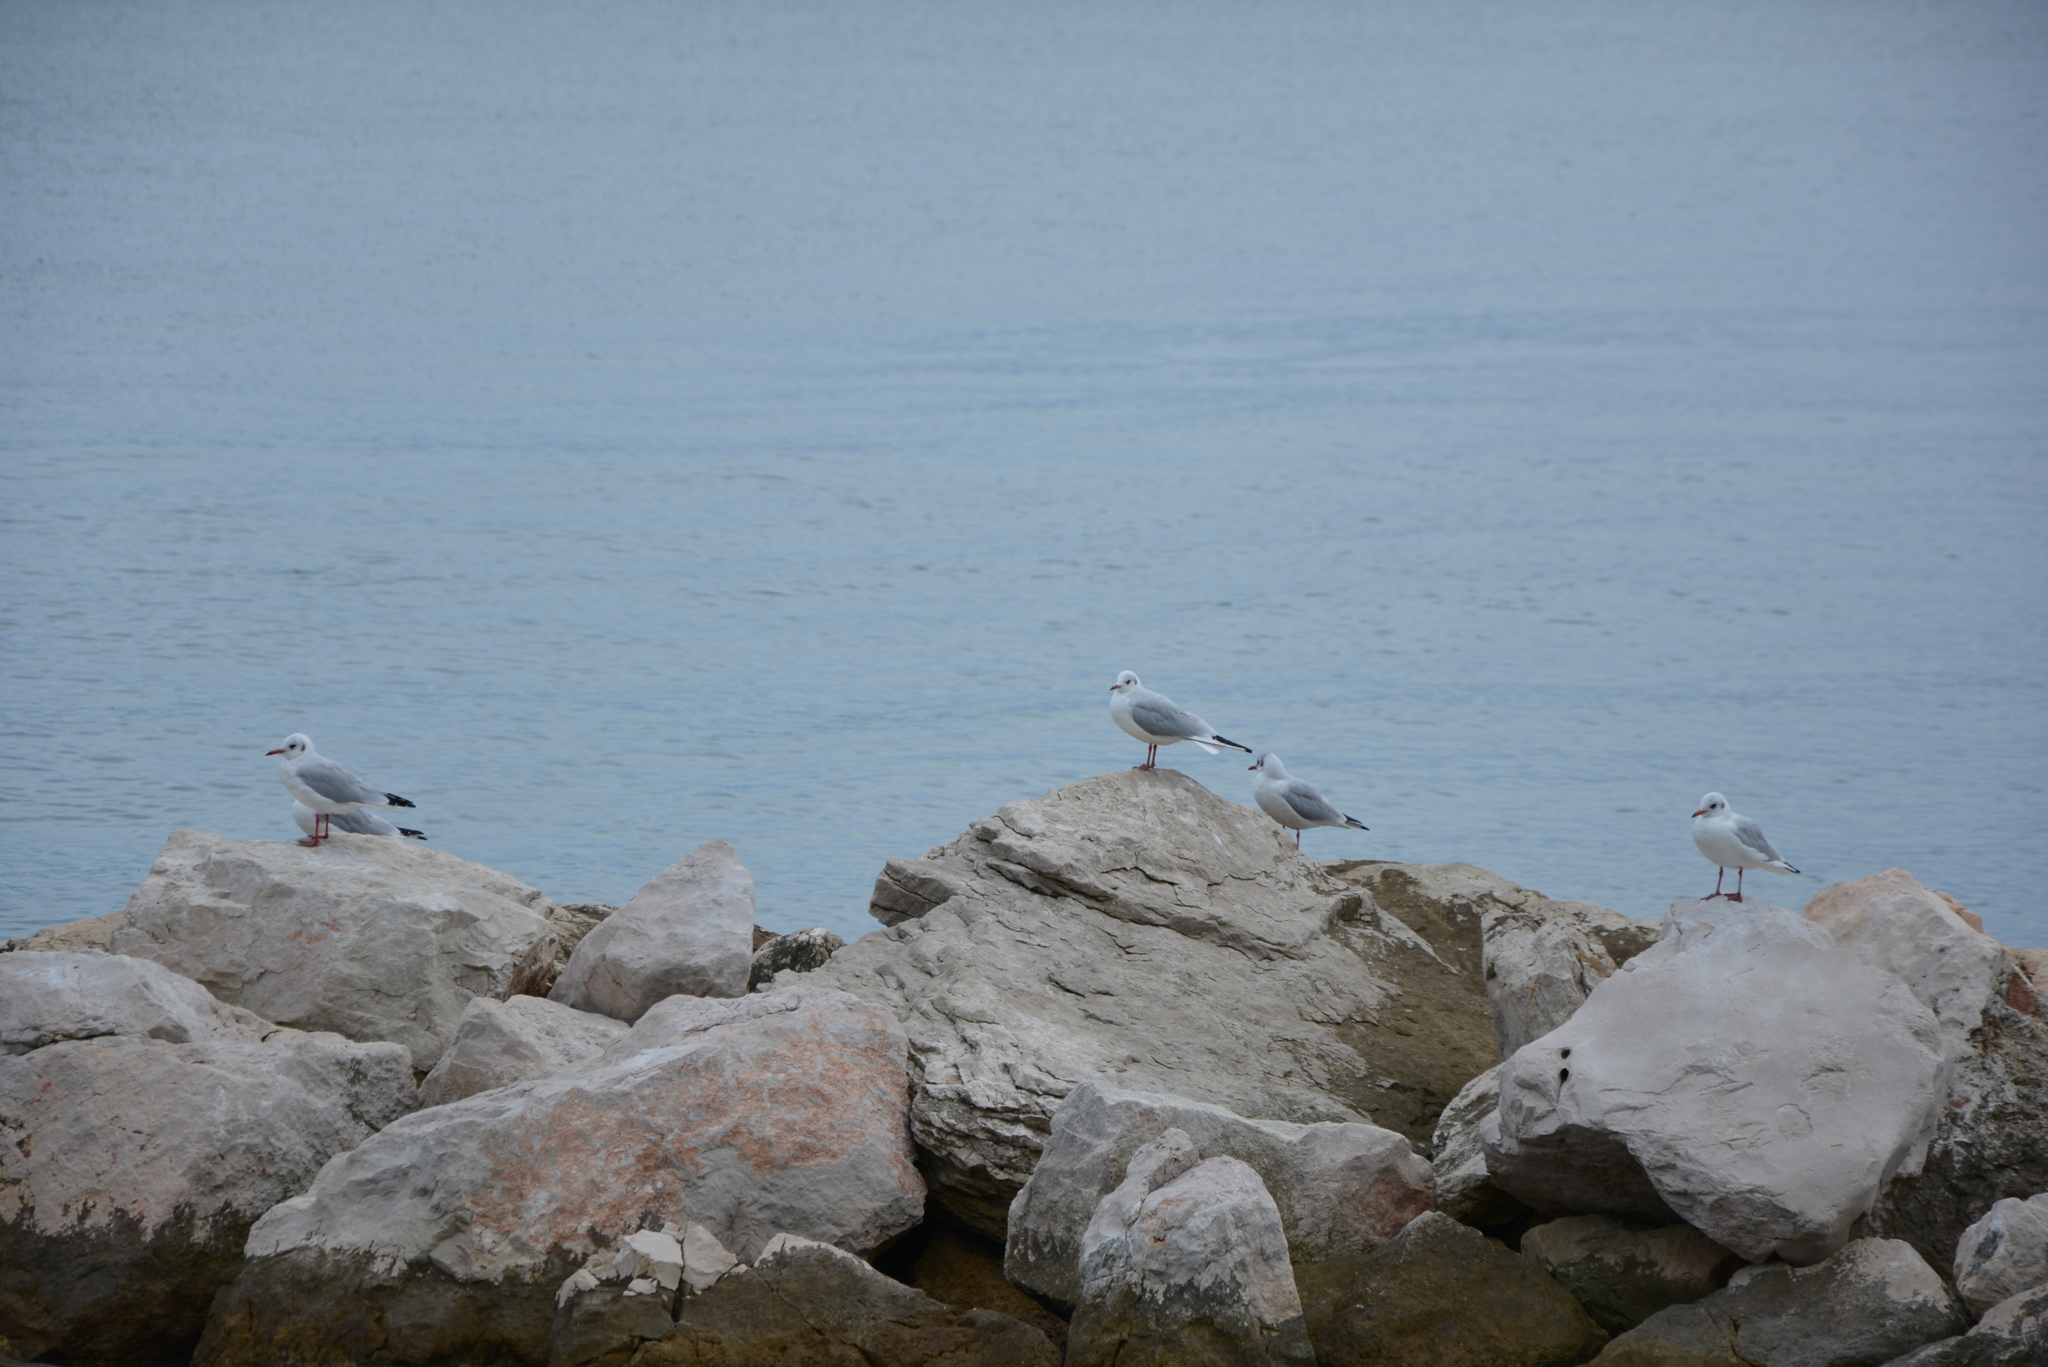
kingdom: Animalia
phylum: Chordata
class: Aves
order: Charadriiformes
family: Laridae
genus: Chroicocephalus
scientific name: Chroicocephalus ridibundus
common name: Black-headed gull
